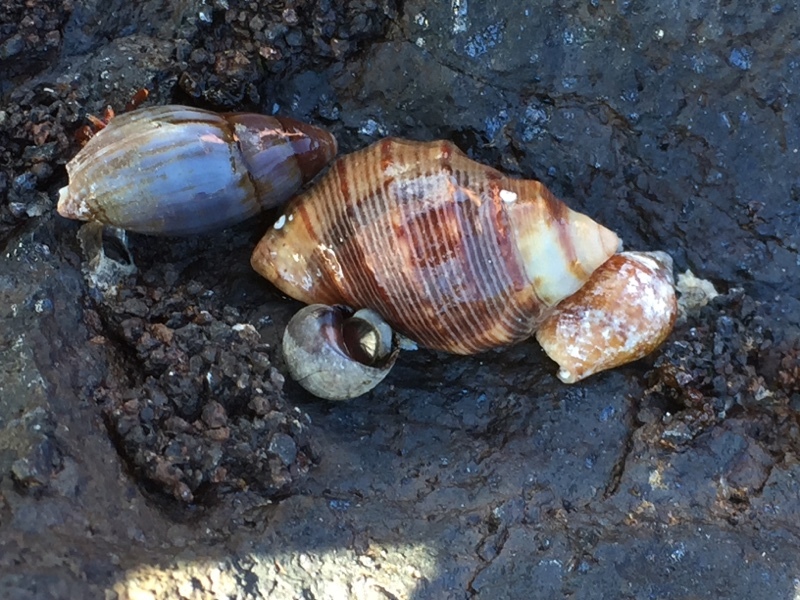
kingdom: Animalia
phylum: Mollusca
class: Gastropoda
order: Neogastropoda
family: Muricidae
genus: Stramonita
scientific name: Stramonita haemastoma
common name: Florida dog winkle
